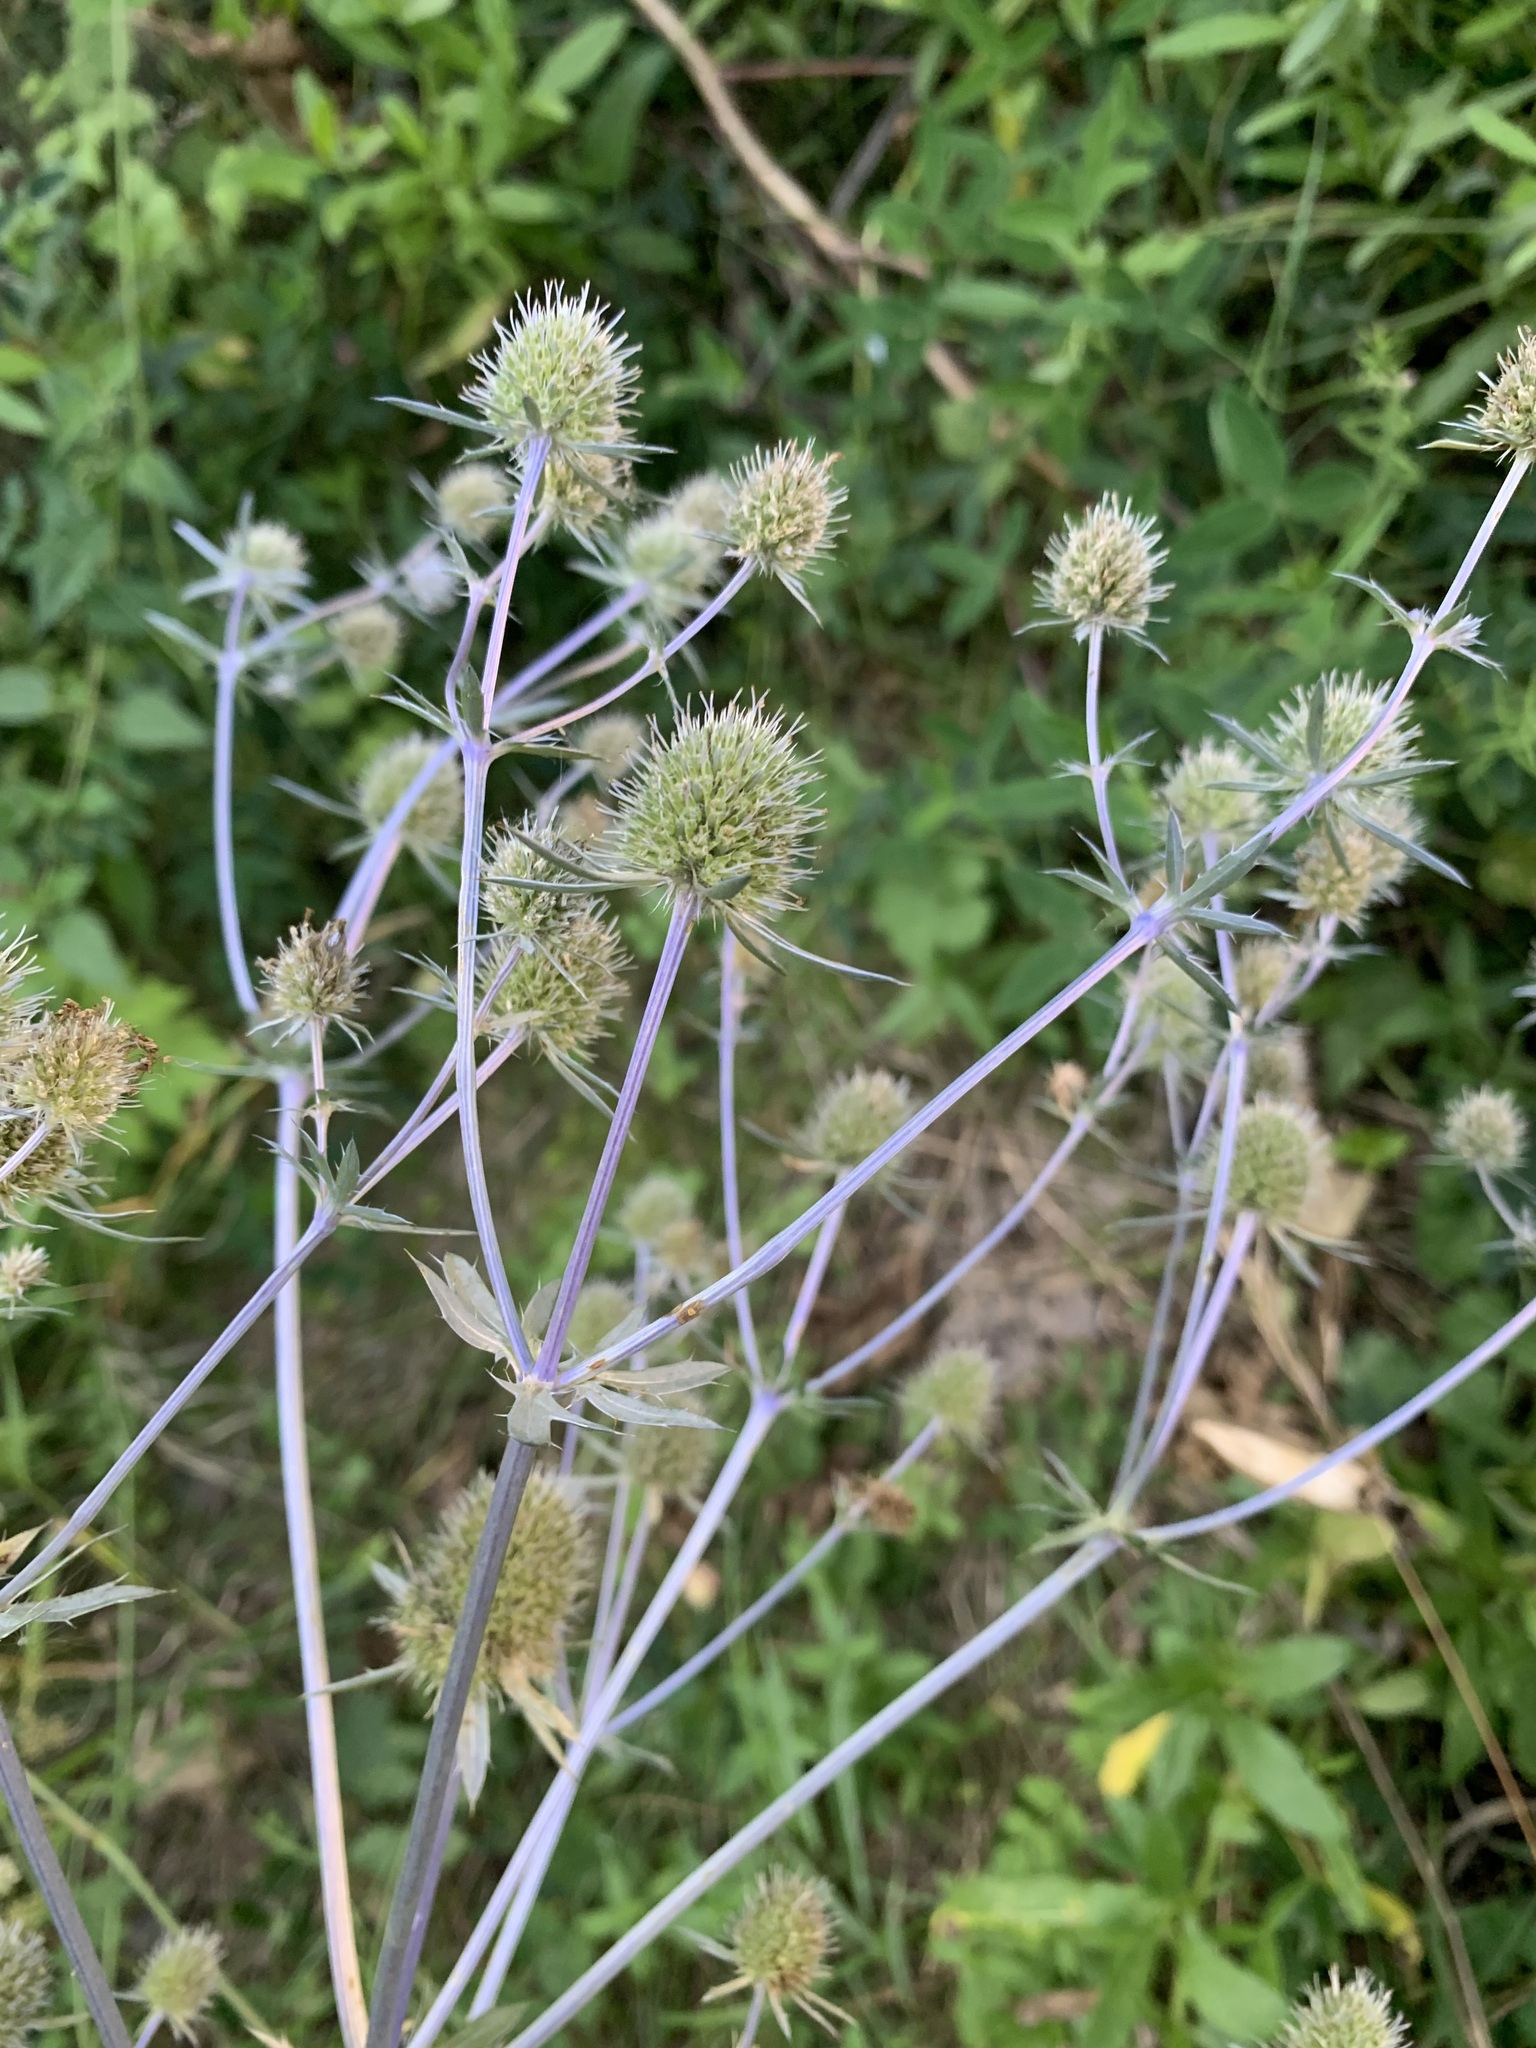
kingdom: Plantae
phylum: Tracheophyta
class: Magnoliopsida
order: Apiales
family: Apiaceae
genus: Eryngium
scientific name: Eryngium planum
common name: Blue eryngo
